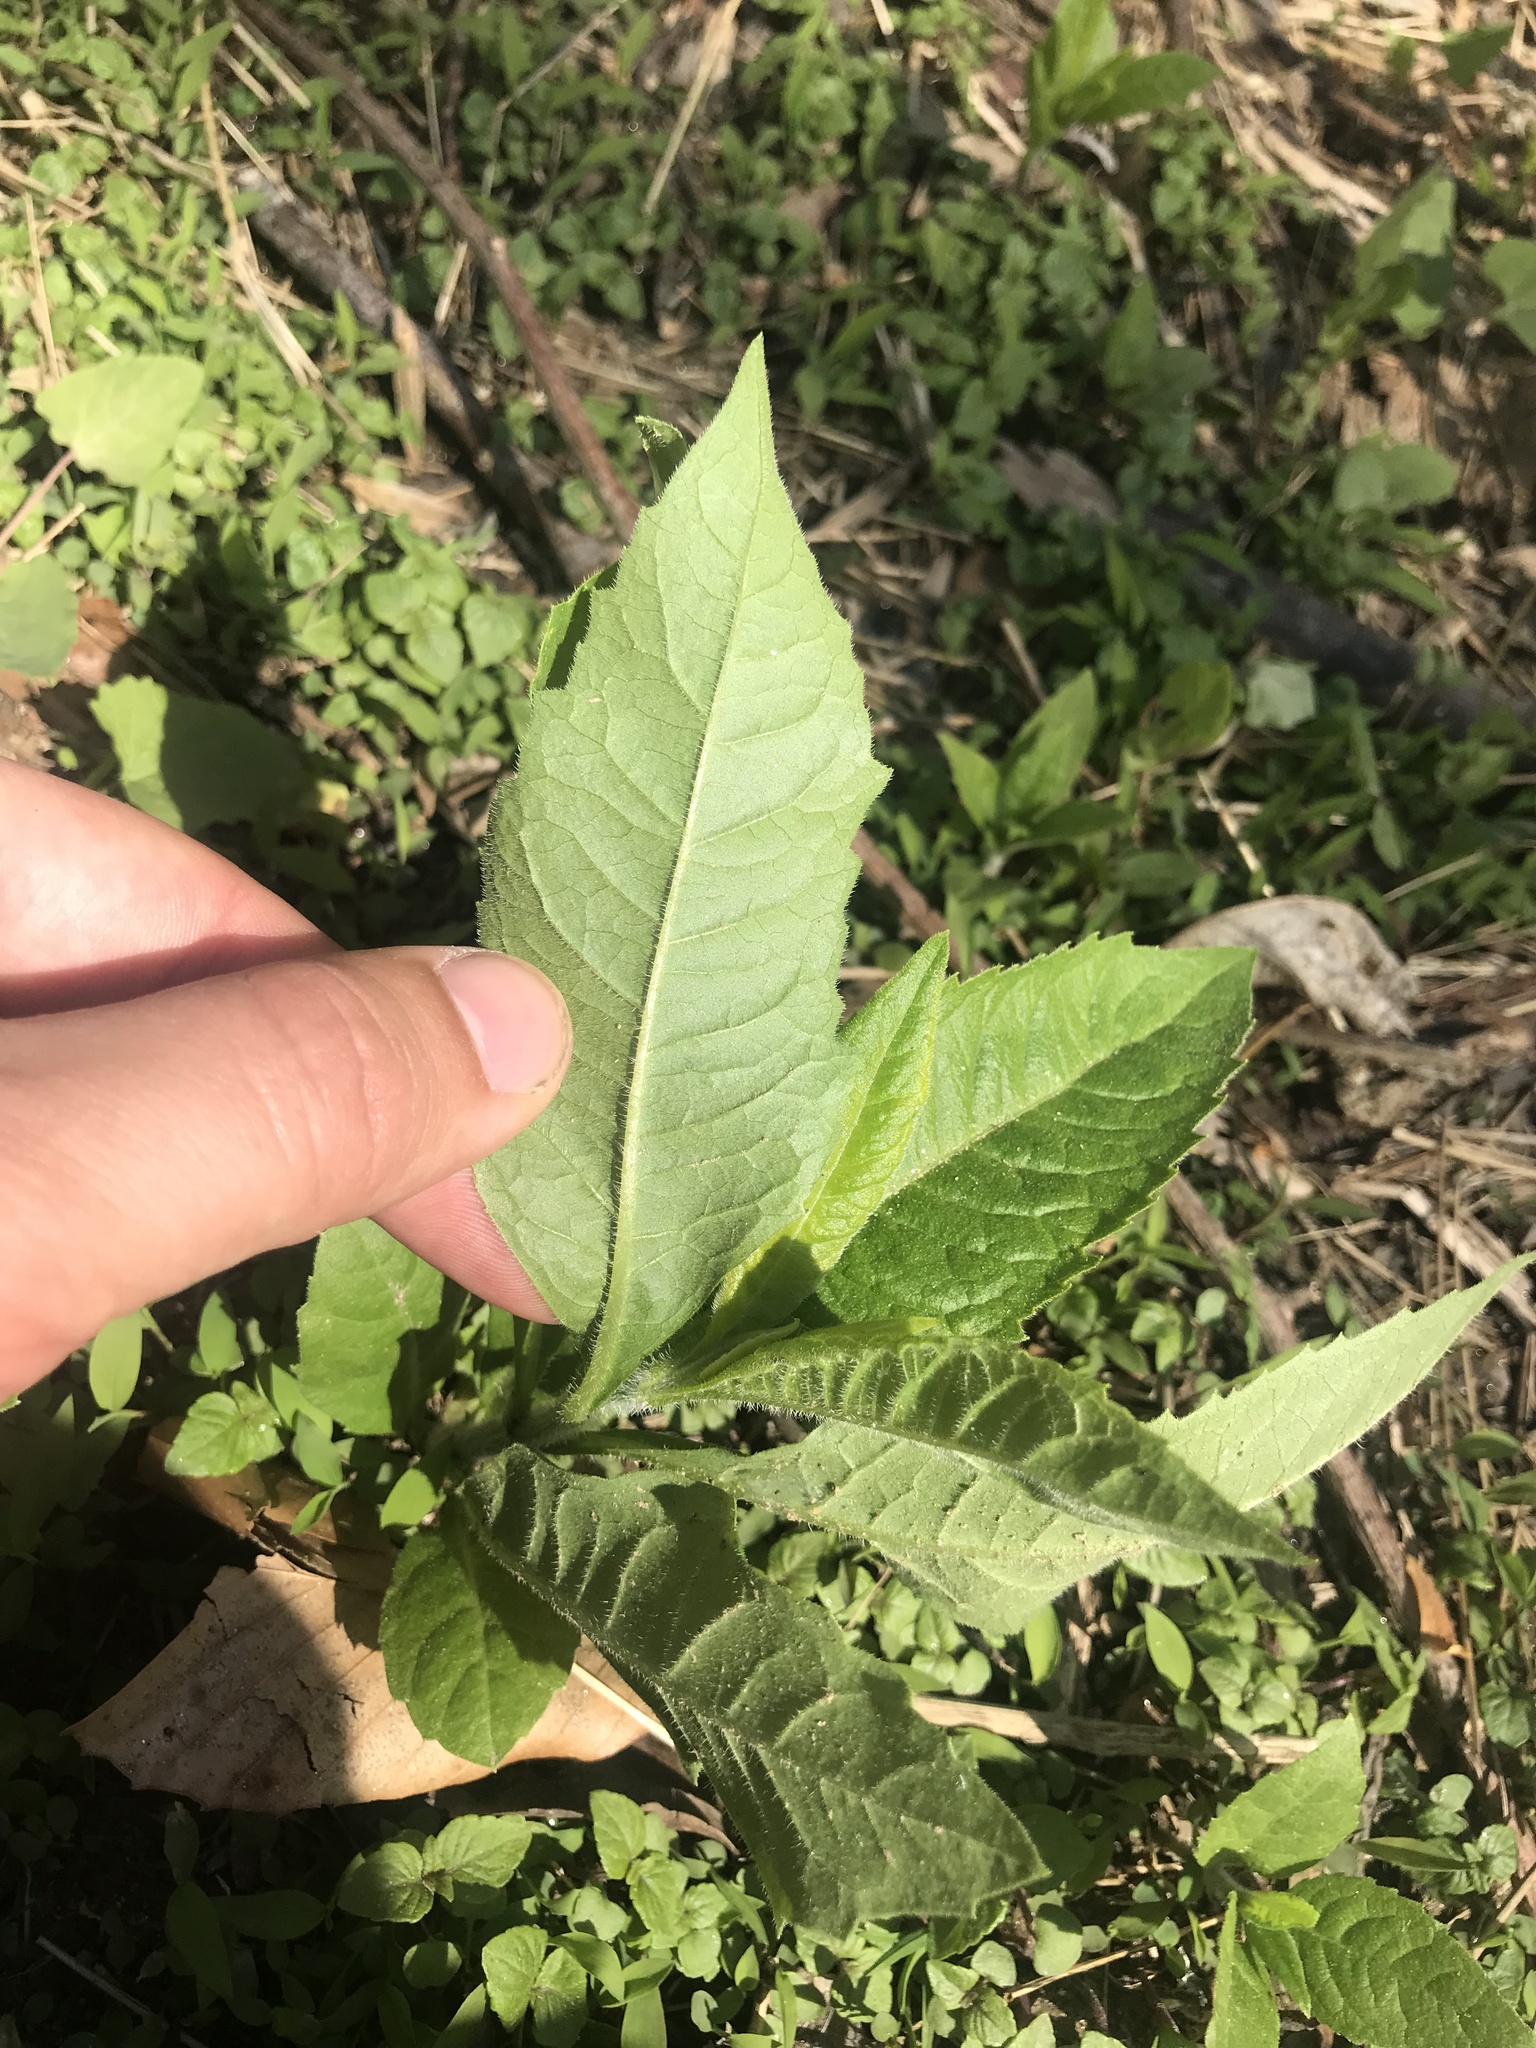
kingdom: Plantae
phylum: Tracheophyta
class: Magnoliopsida
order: Asterales
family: Asteraceae
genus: Verbesina
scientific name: Verbesina alternifolia
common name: Wingstem
